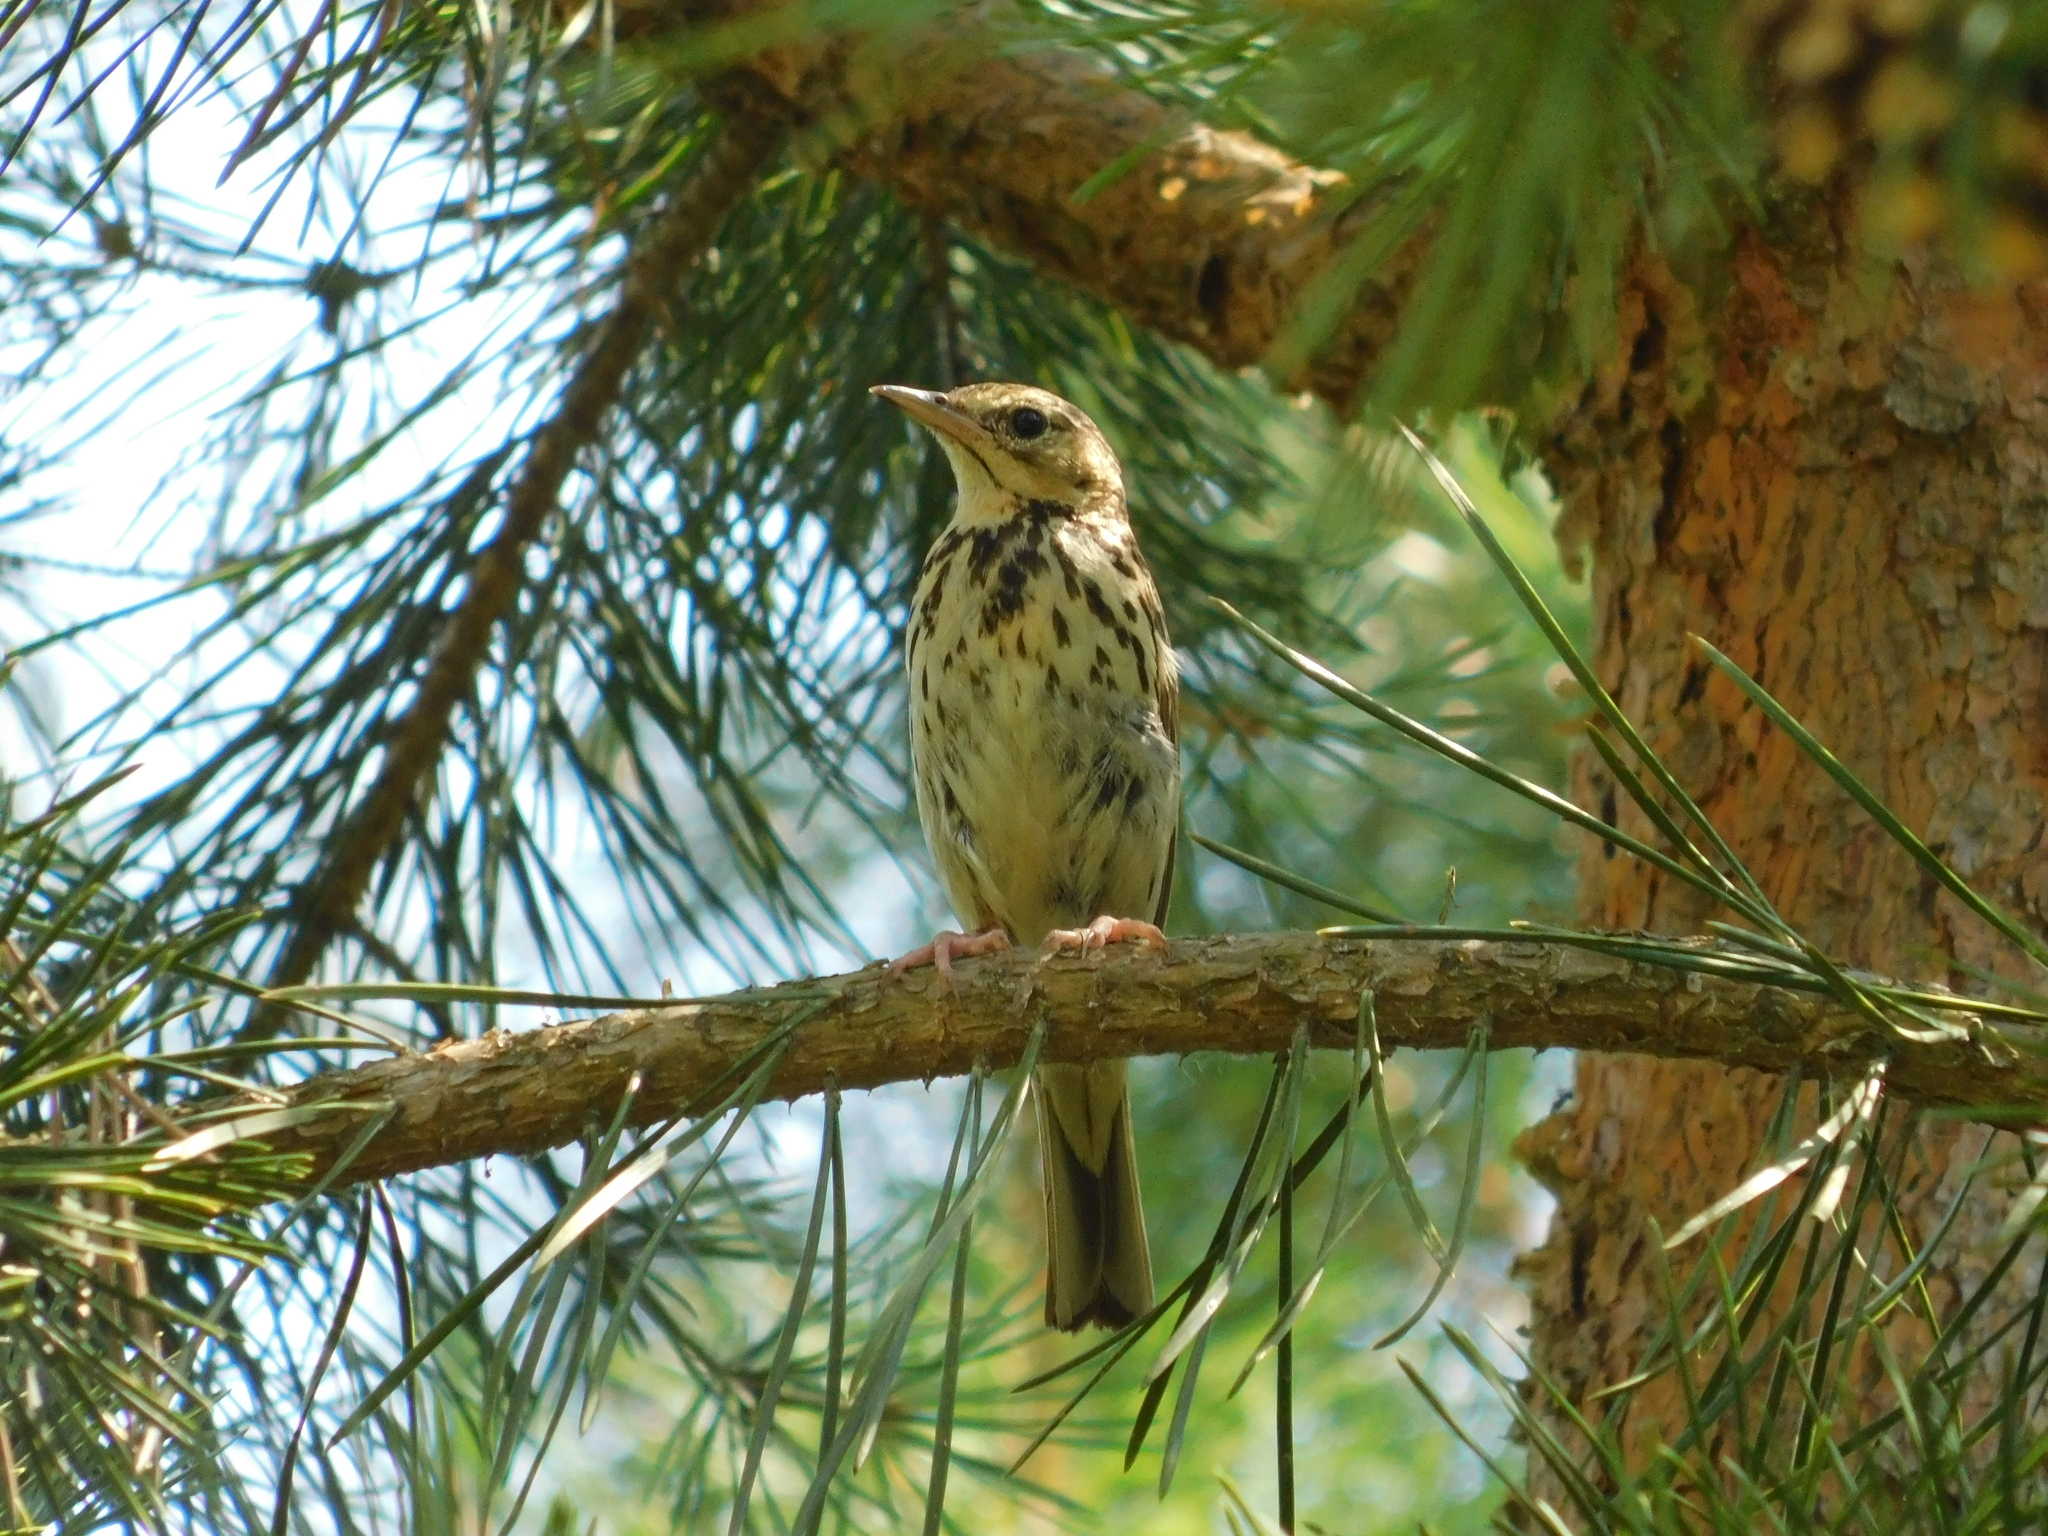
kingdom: Animalia
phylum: Chordata
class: Aves
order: Passeriformes
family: Motacillidae
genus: Anthus
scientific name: Anthus trivialis
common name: Tree pipit
